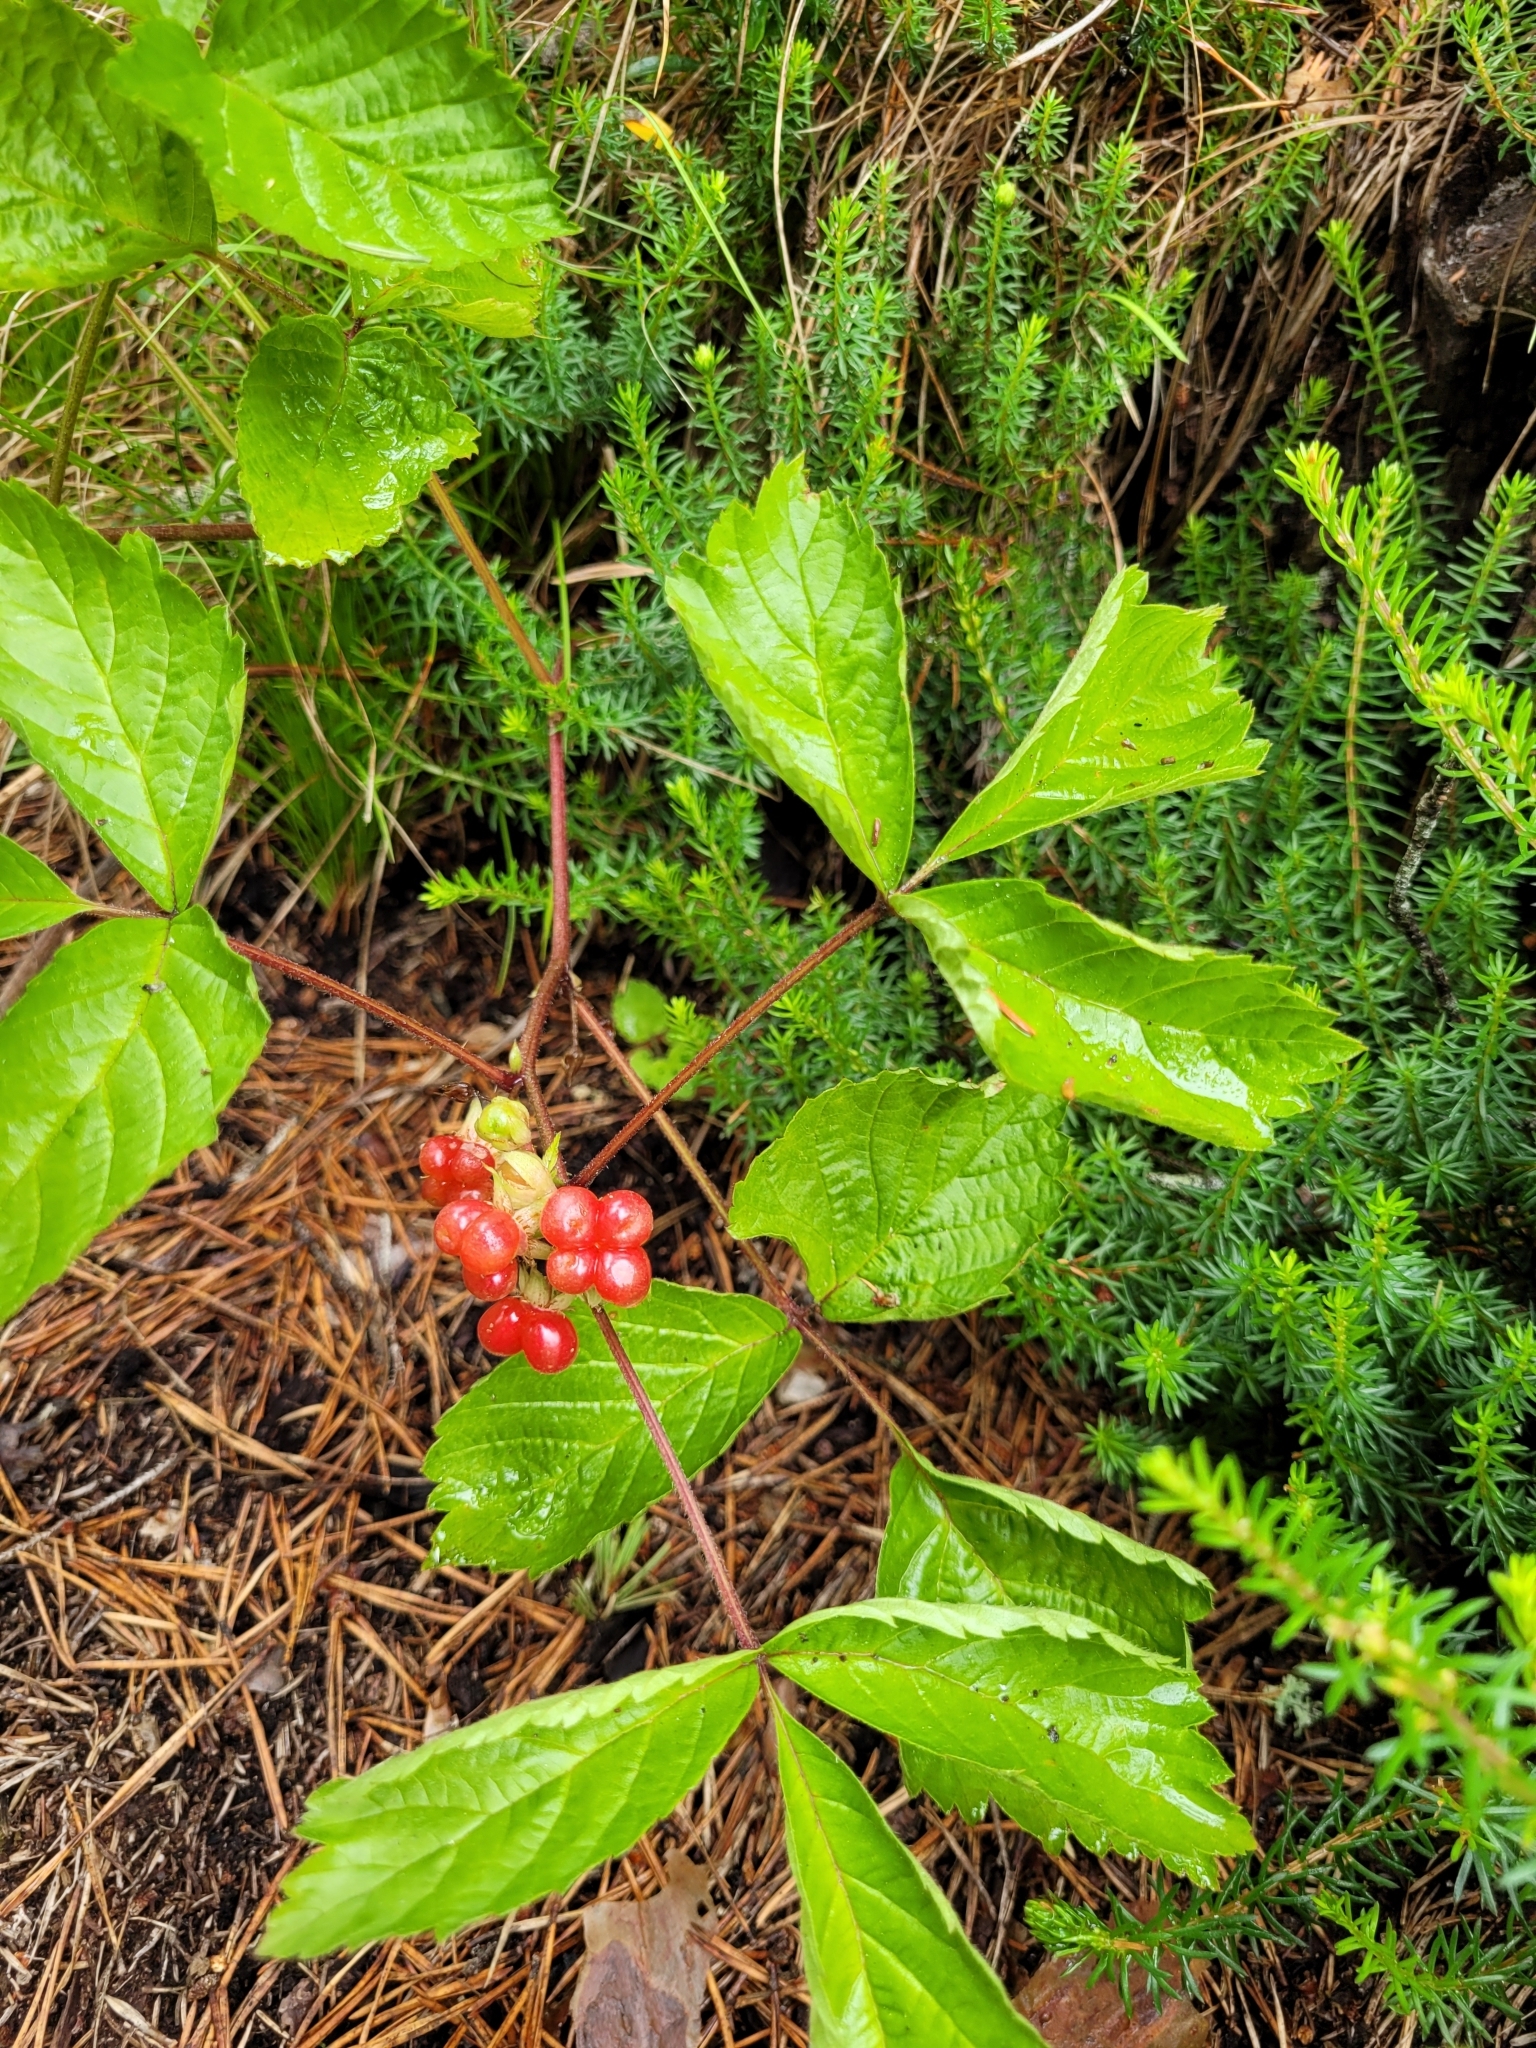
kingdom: Plantae
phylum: Tracheophyta
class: Magnoliopsida
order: Rosales
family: Rosaceae
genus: Rubus
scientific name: Rubus saxatilis
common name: Stone bramble
